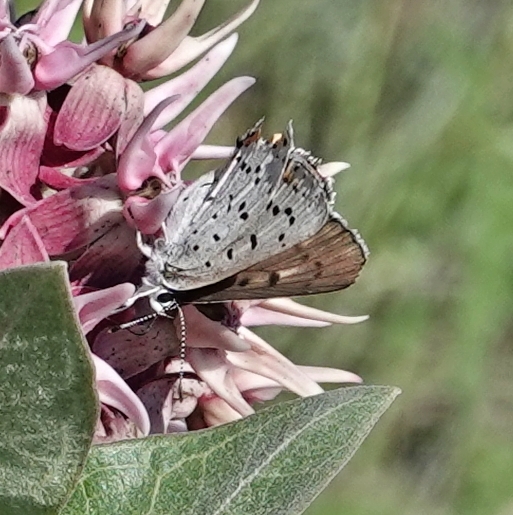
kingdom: Animalia
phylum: Arthropoda
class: Insecta
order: Lepidoptera
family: Lycaenidae
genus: Tharsalea
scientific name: Tharsalea dione
